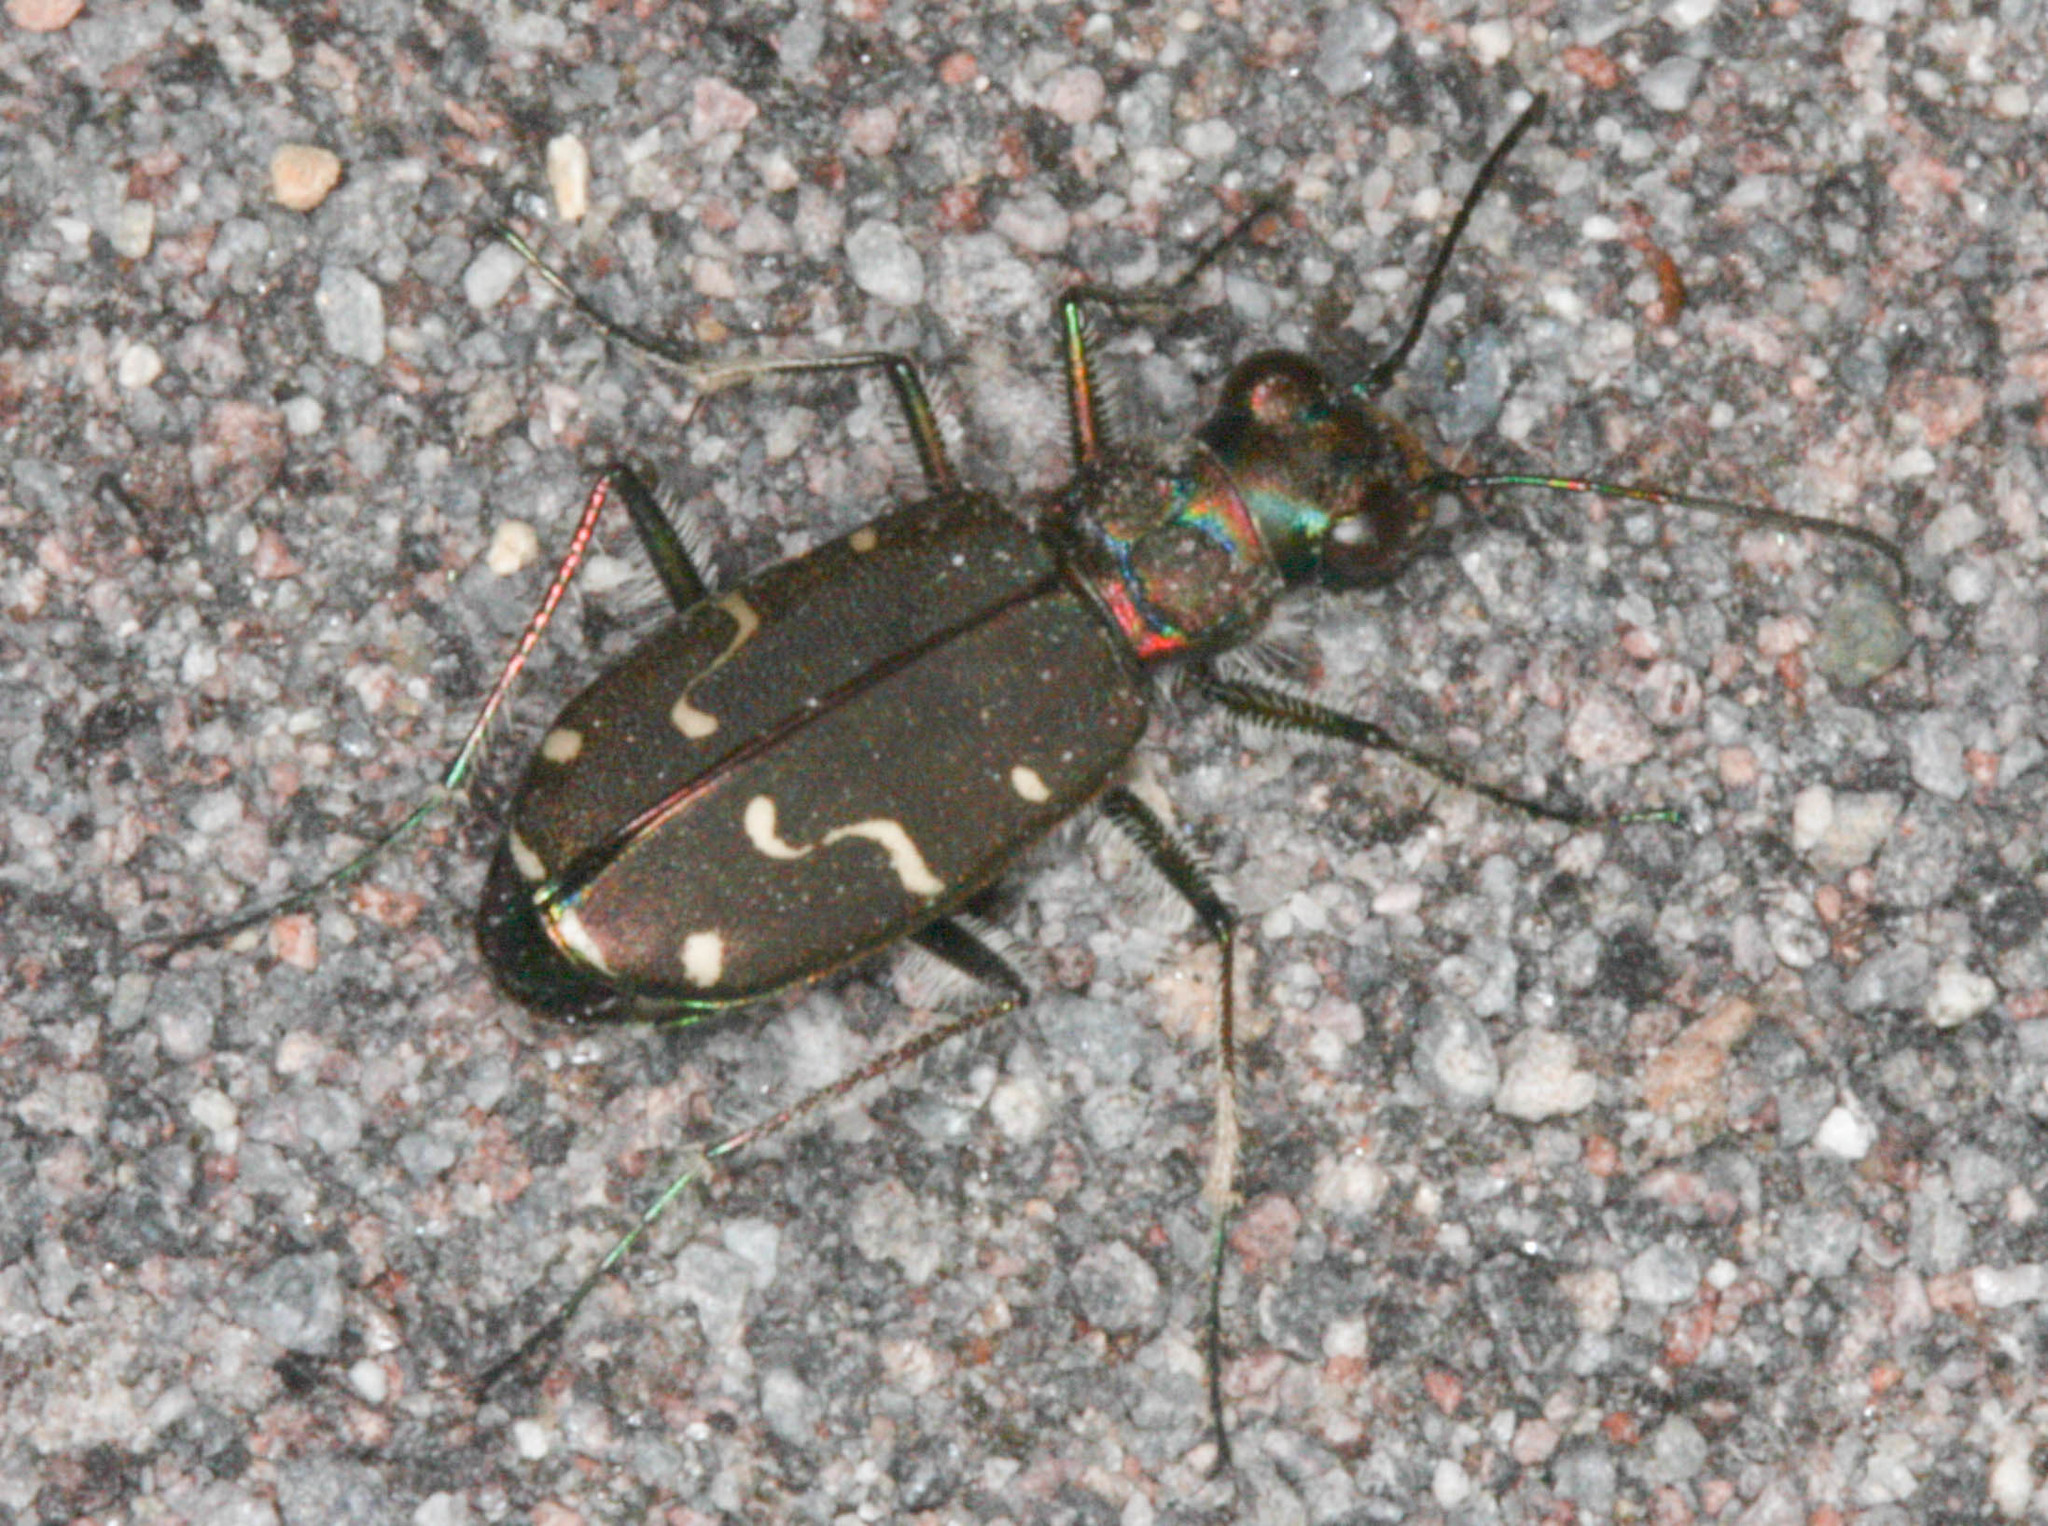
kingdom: Animalia
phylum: Arthropoda
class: Insecta
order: Coleoptera
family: Carabidae
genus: Cicindela
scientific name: Cicindela depressula
